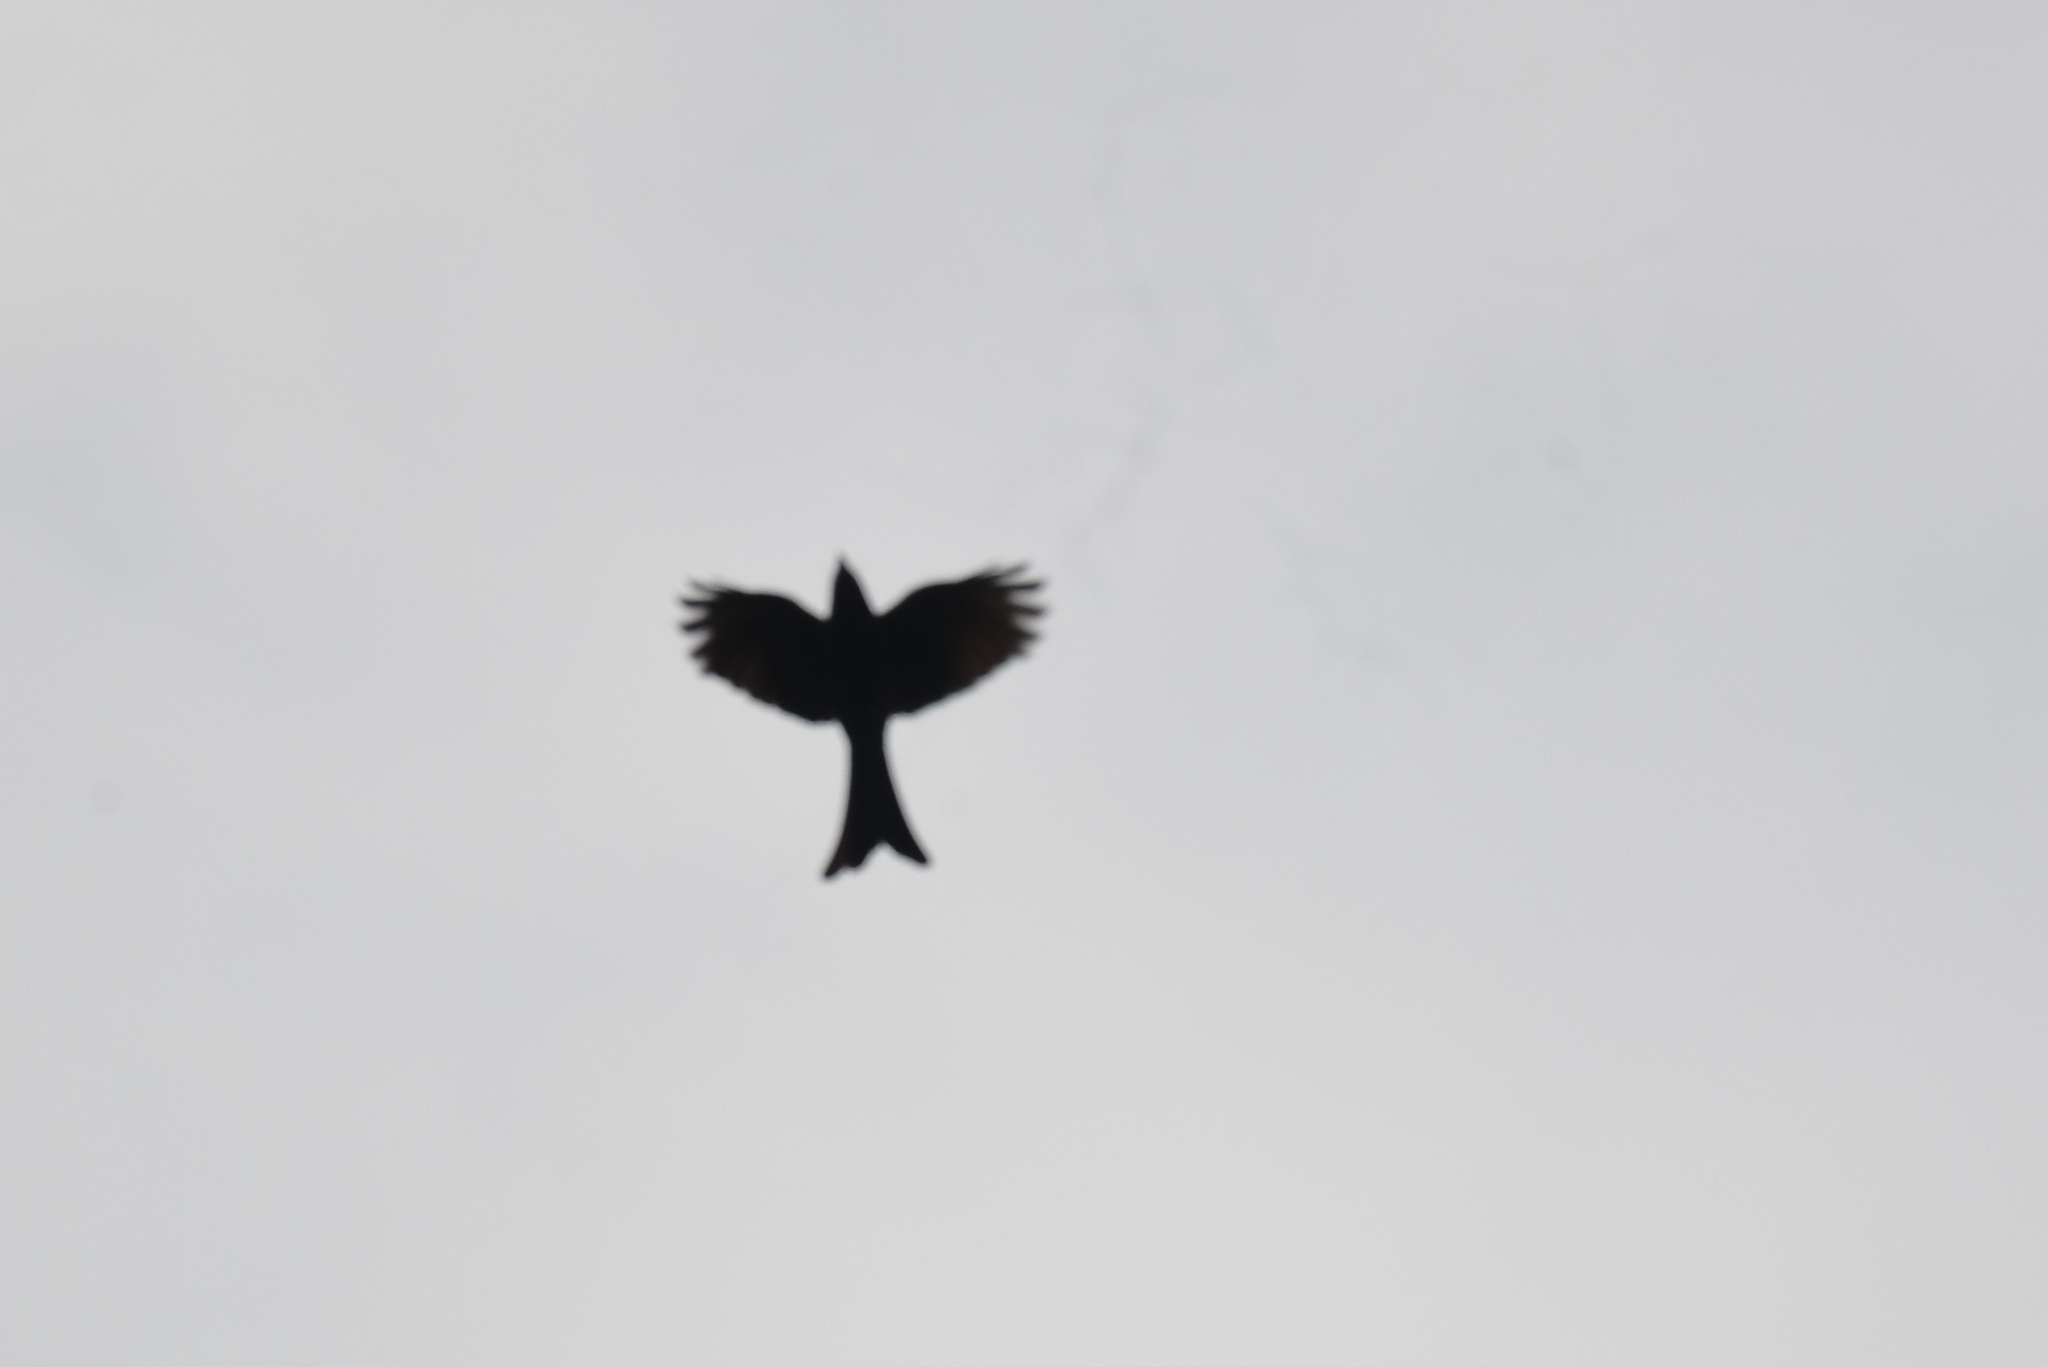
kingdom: Animalia
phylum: Chordata
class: Aves
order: Passeriformes
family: Dicruridae
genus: Dicrurus
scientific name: Dicrurus aeneus
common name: Bronzed drongo
